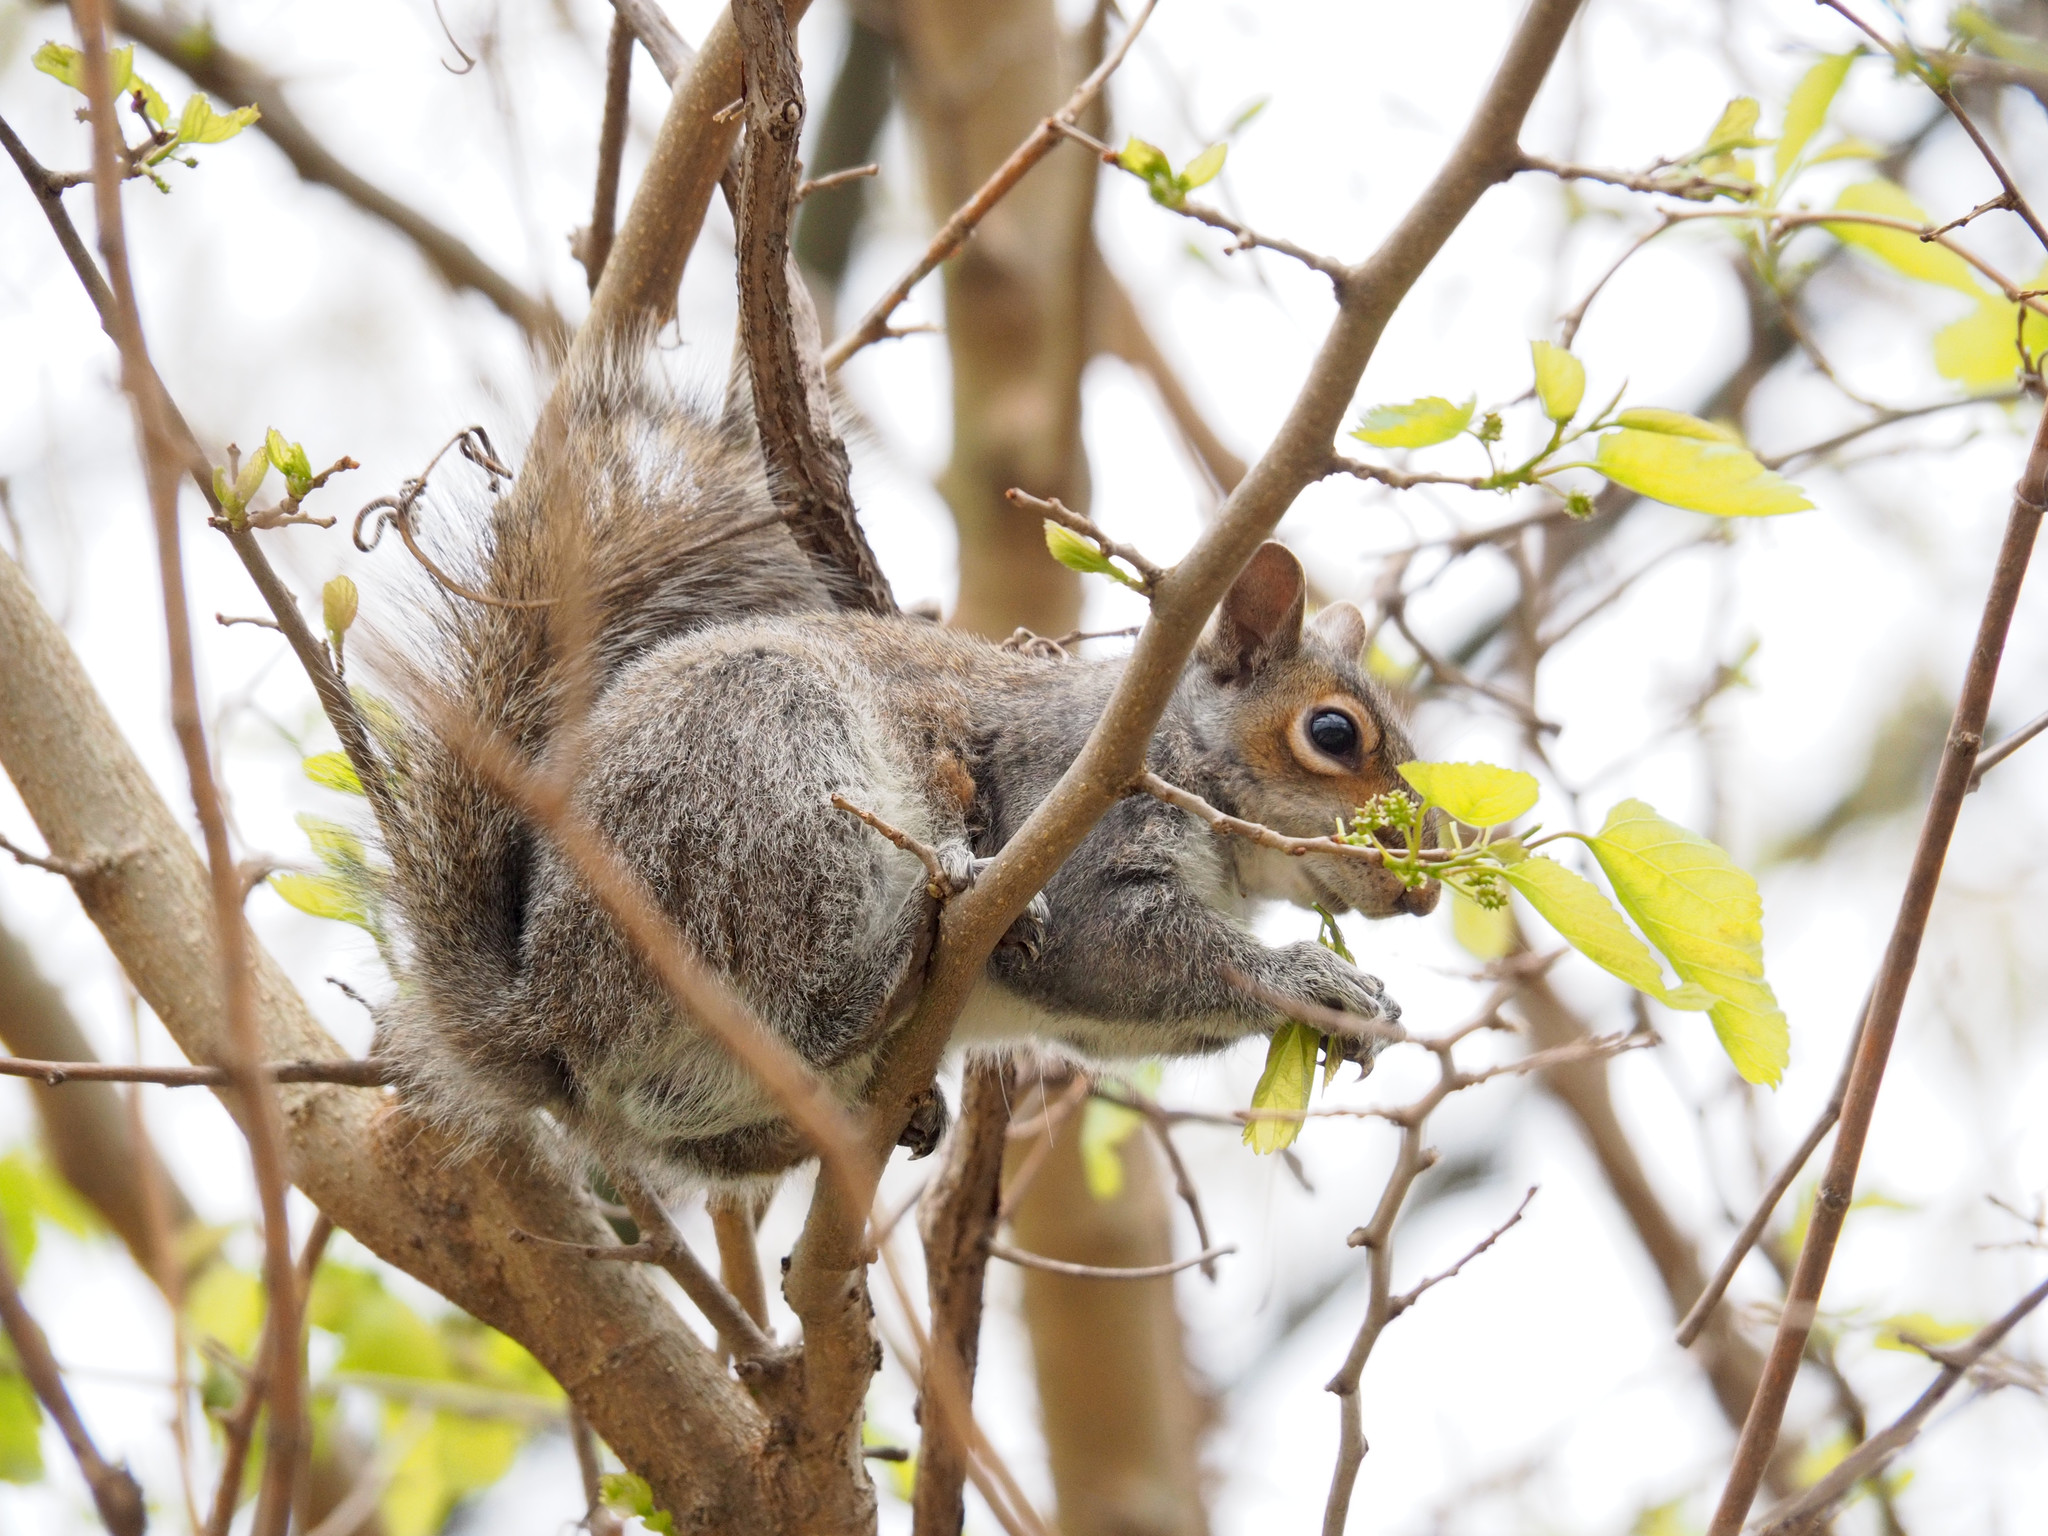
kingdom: Animalia
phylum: Chordata
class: Mammalia
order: Rodentia
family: Sciuridae
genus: Sciurus
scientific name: Sciurus carolinensis
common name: Eastern gray squirrel
